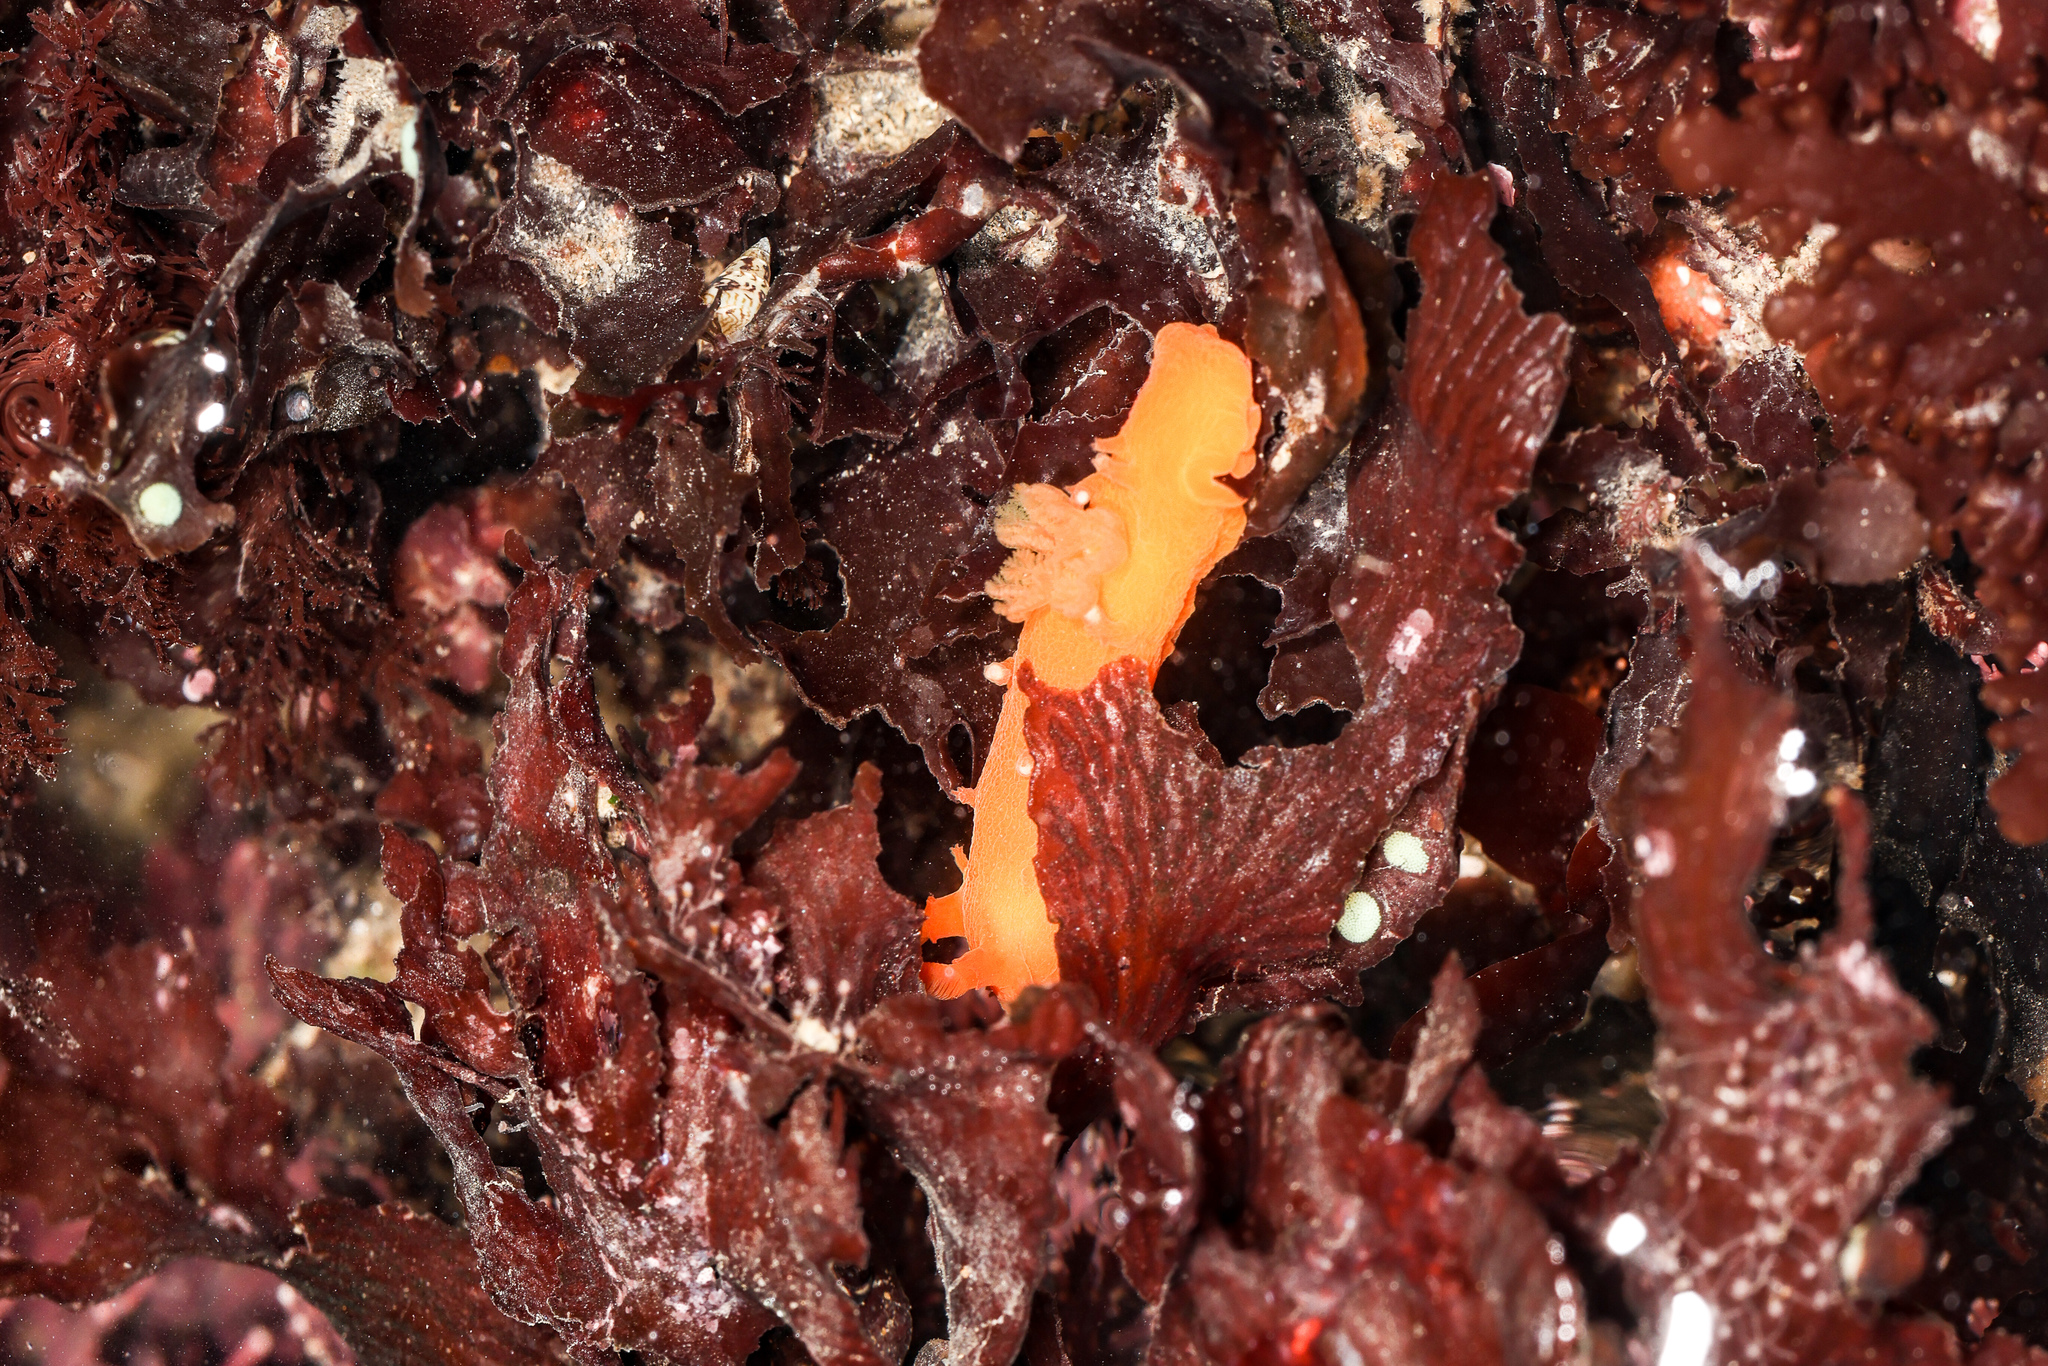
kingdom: Animalia
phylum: Mollusca
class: Gastropoda
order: Nudibranchia
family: Polyceridae
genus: Triopha
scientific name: Triopha maculata
